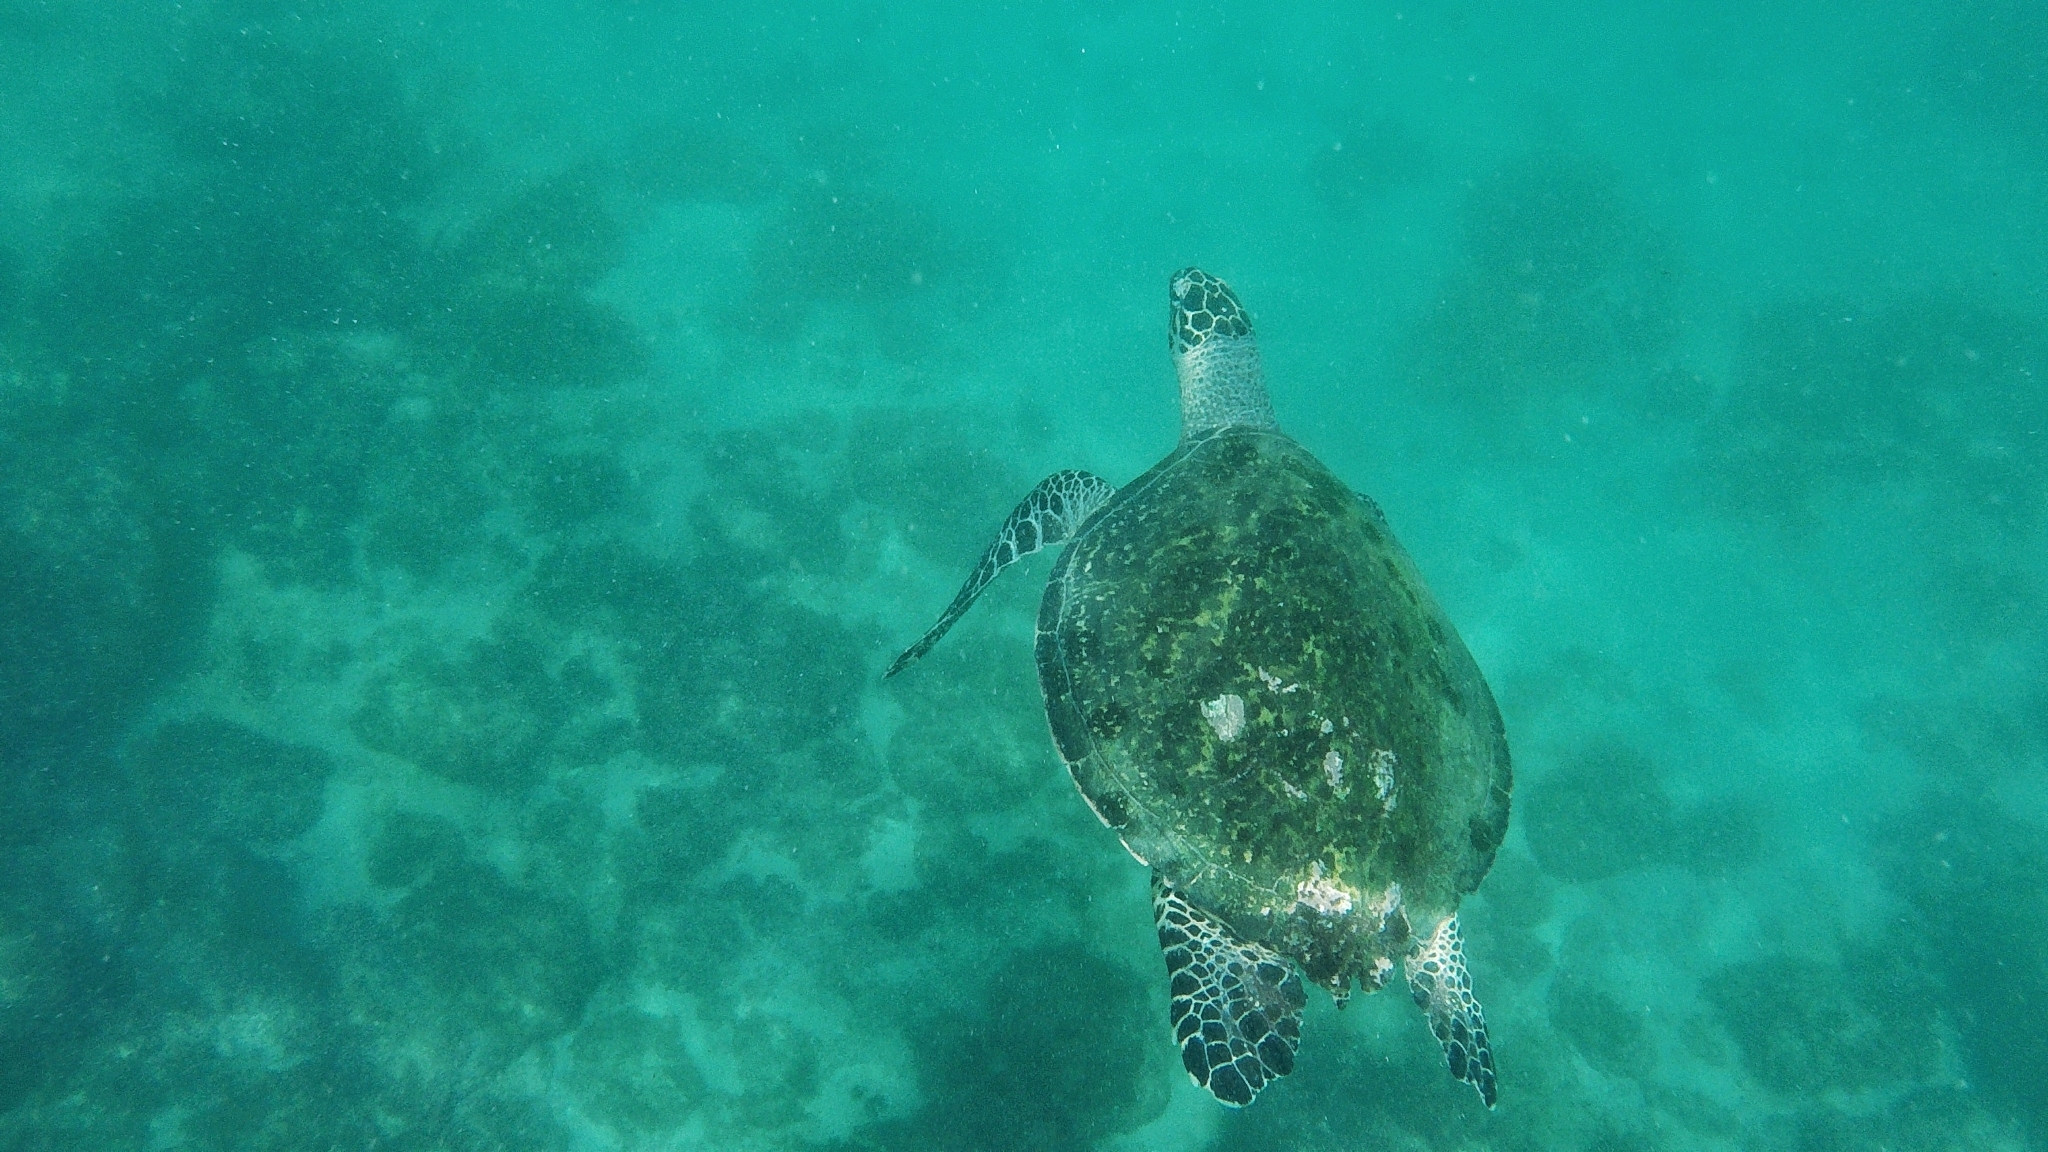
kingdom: Animalia
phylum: Chordata
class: Testudines
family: Cheloniidae
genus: Eretmochelys
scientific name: Eretmochelys imbricata
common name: Hawksbill turtle
